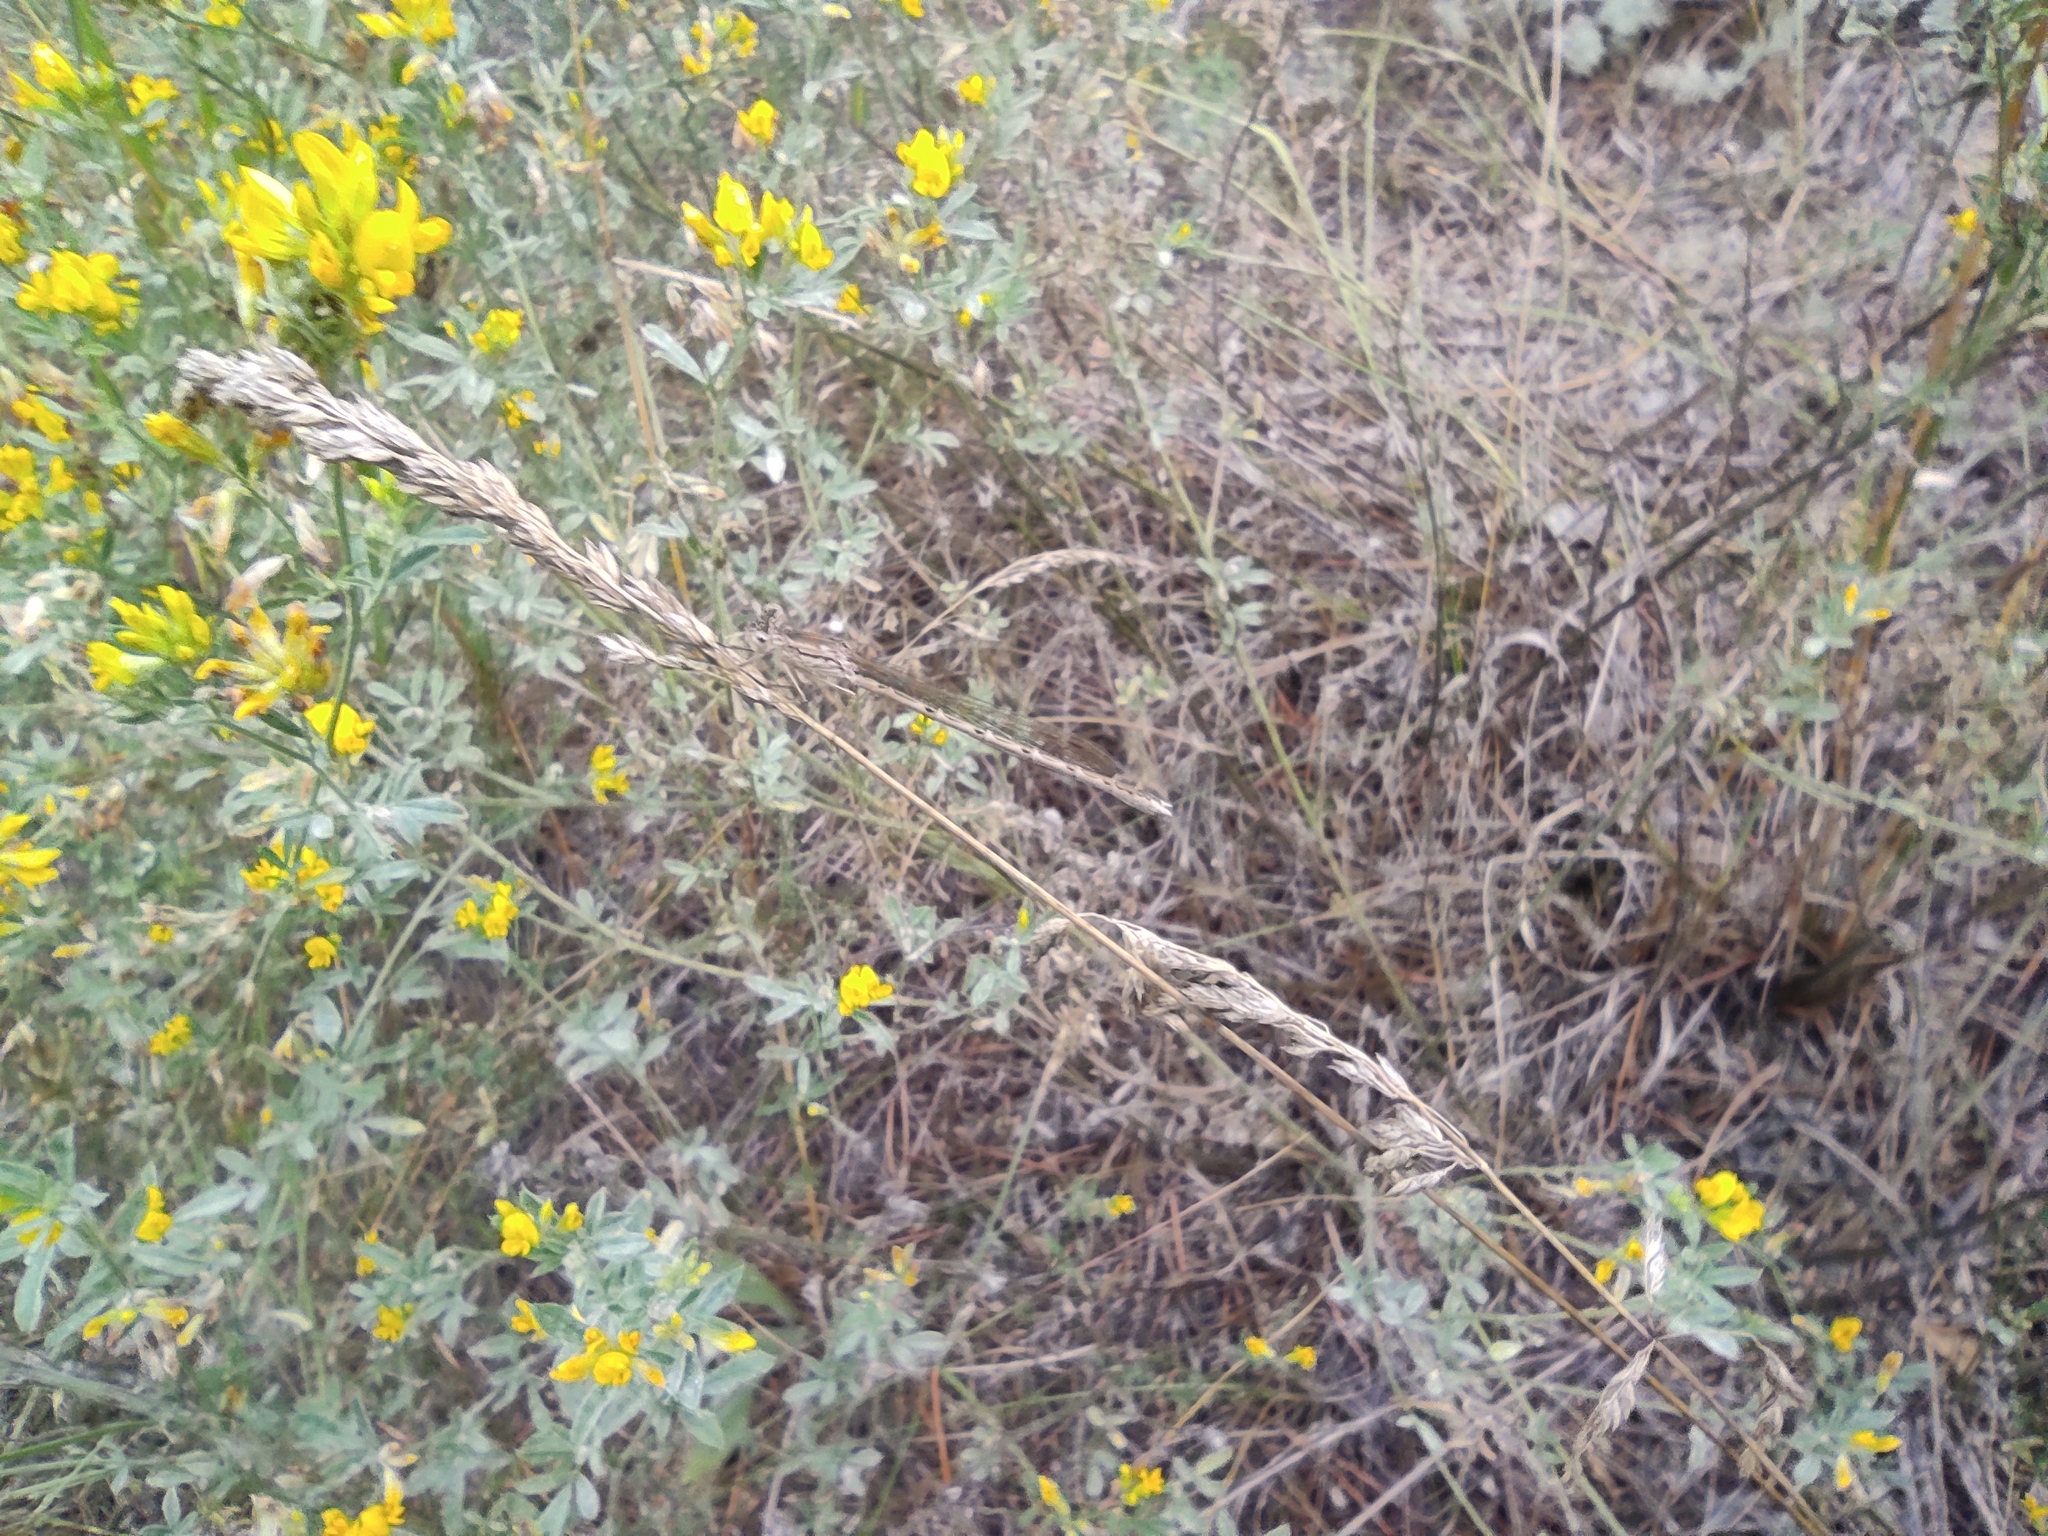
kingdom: Animalia
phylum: Arthropoda
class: Insecta
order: Odonata
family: Lestidae
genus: Sympecma
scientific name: Sympecma paedisca
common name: Siberian winter damsel
